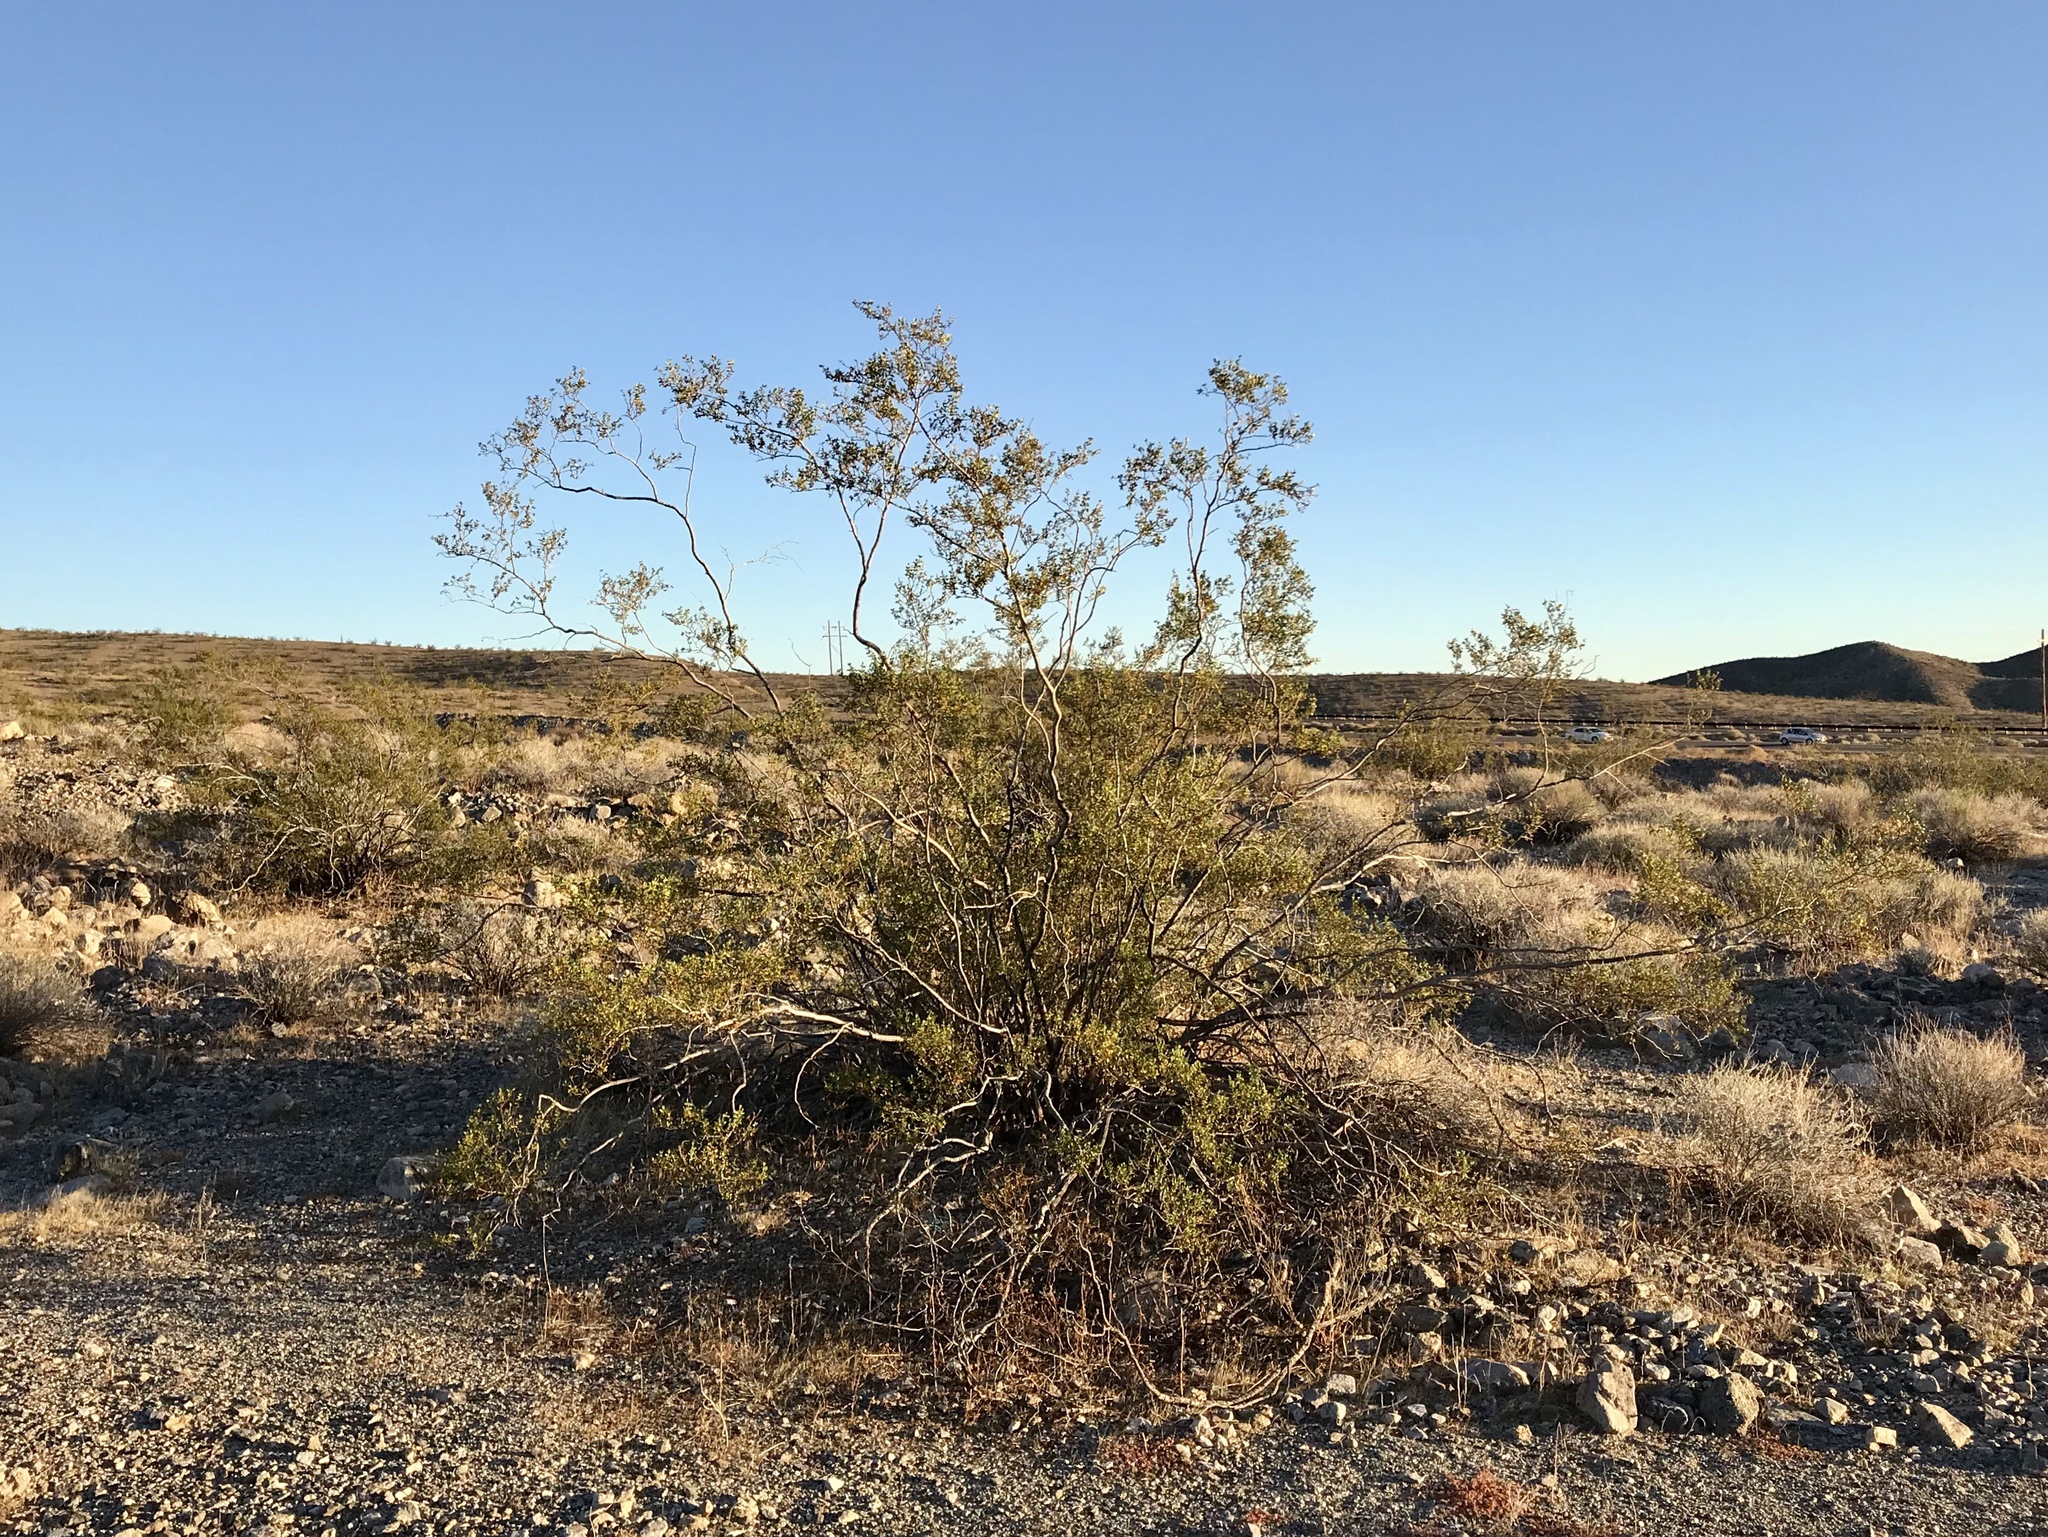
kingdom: Plantae
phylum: Tracheophyta
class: Magnoliopsida
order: Zygophyllales
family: Zygophyllaceae
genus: Larrea
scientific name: Larrea tridentata
